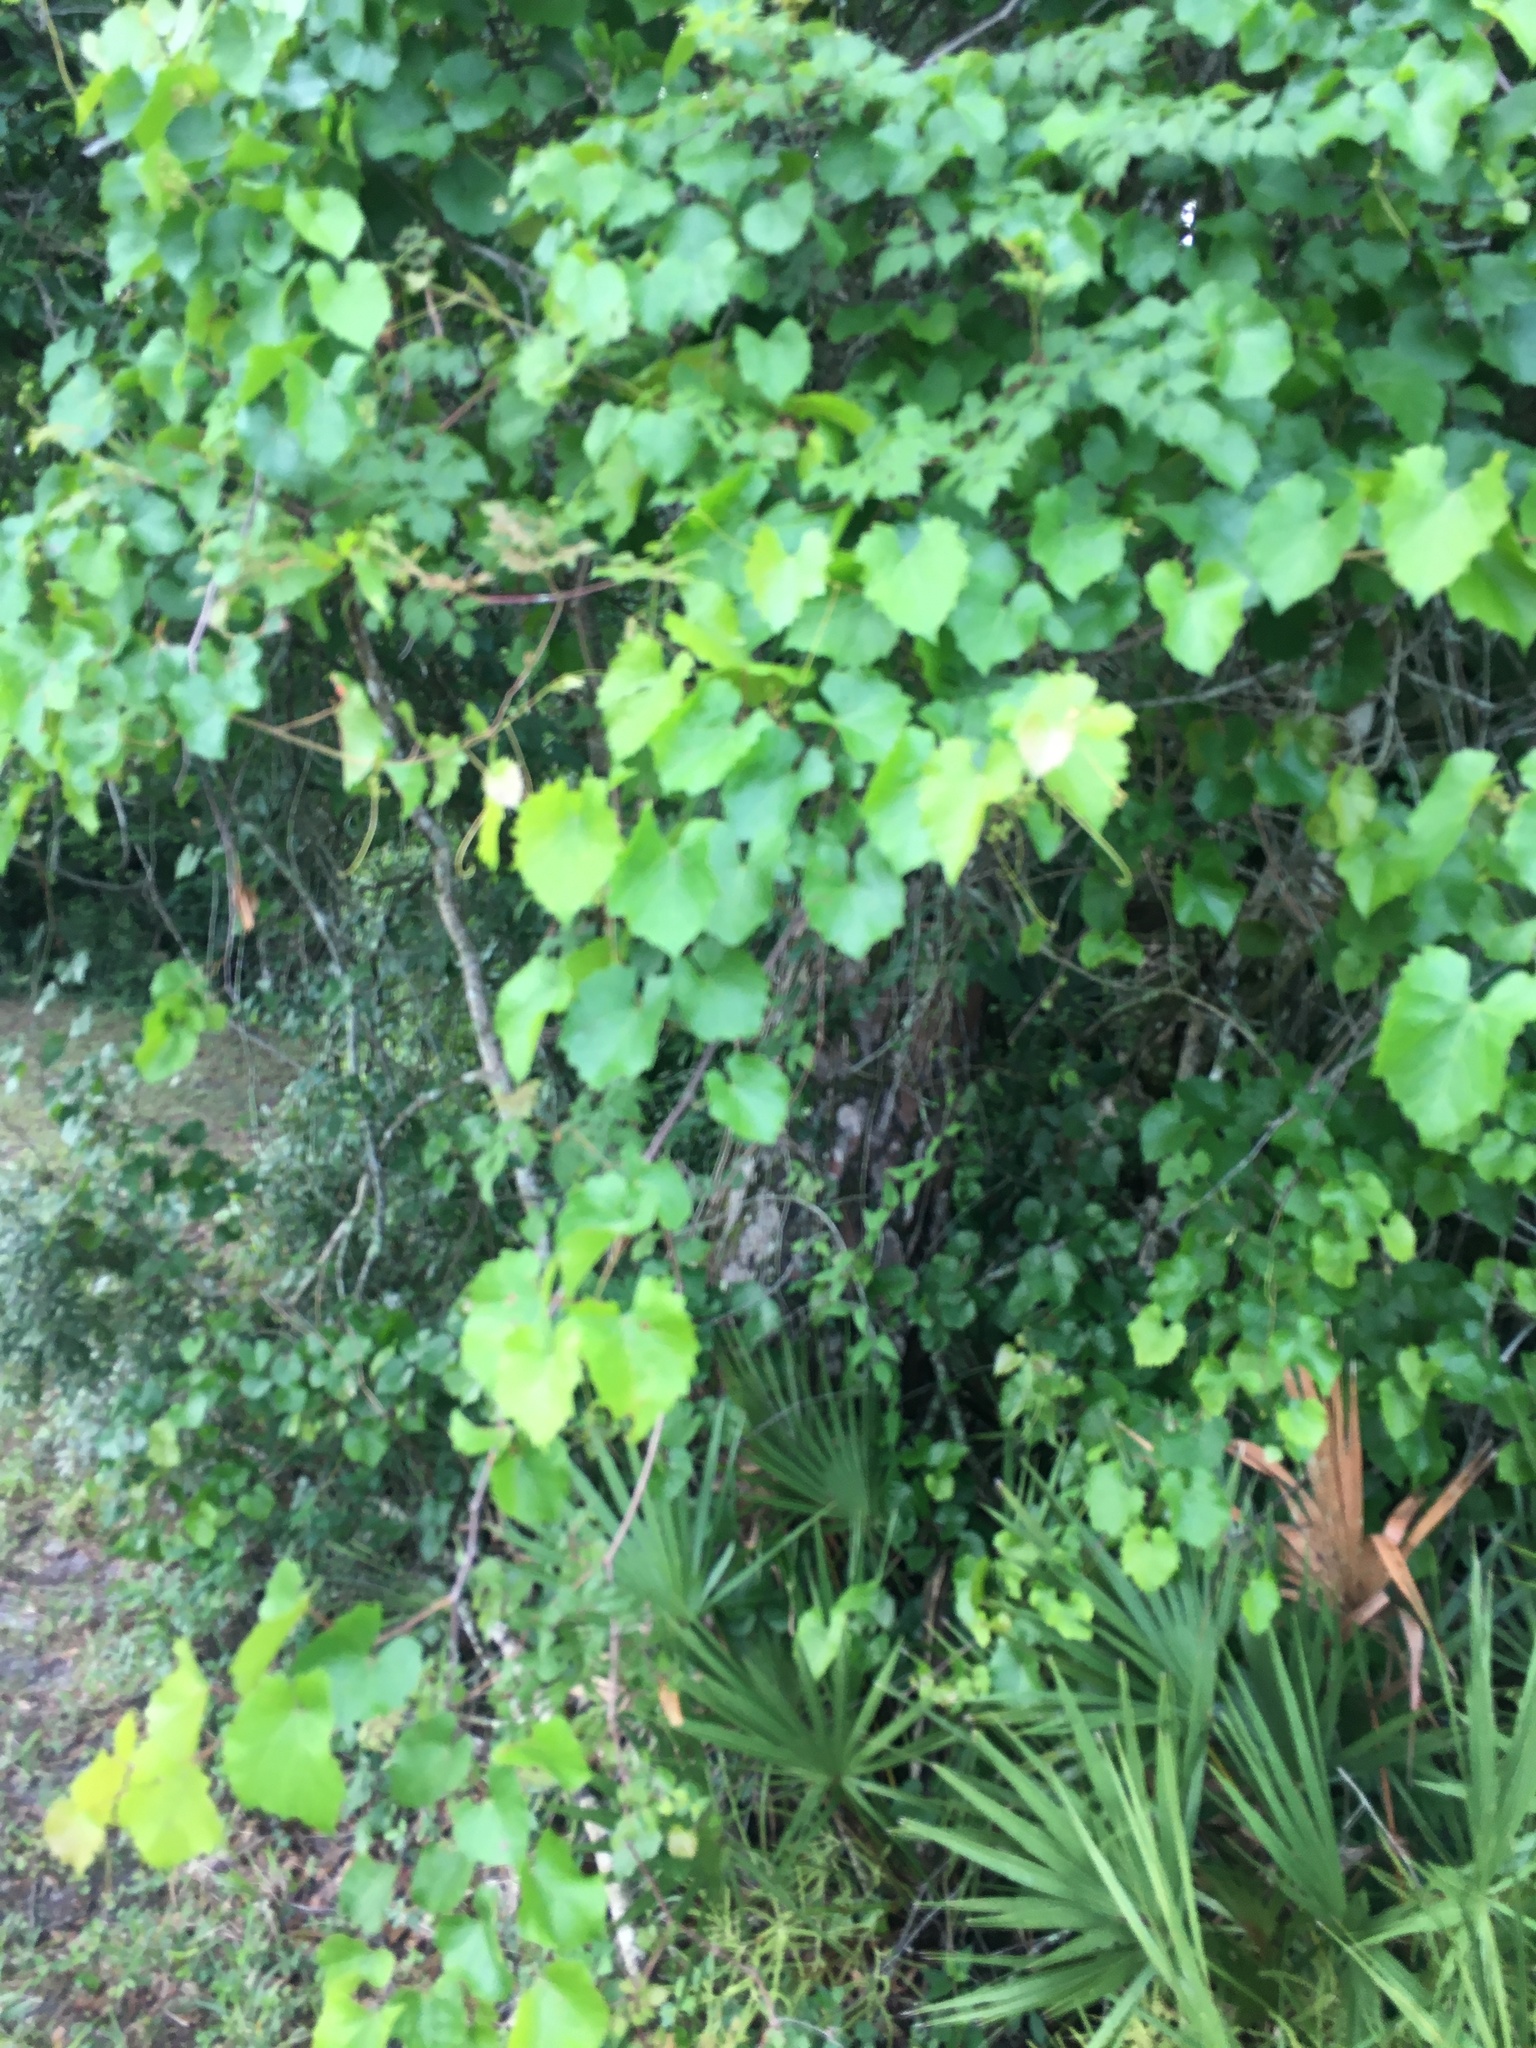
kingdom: Plantae
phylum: Tracheophyta
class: Magnoliopsida
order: Vitales
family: Vitaceae
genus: Vitis
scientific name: Vitis rotundifolia
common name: Muscadine grape
